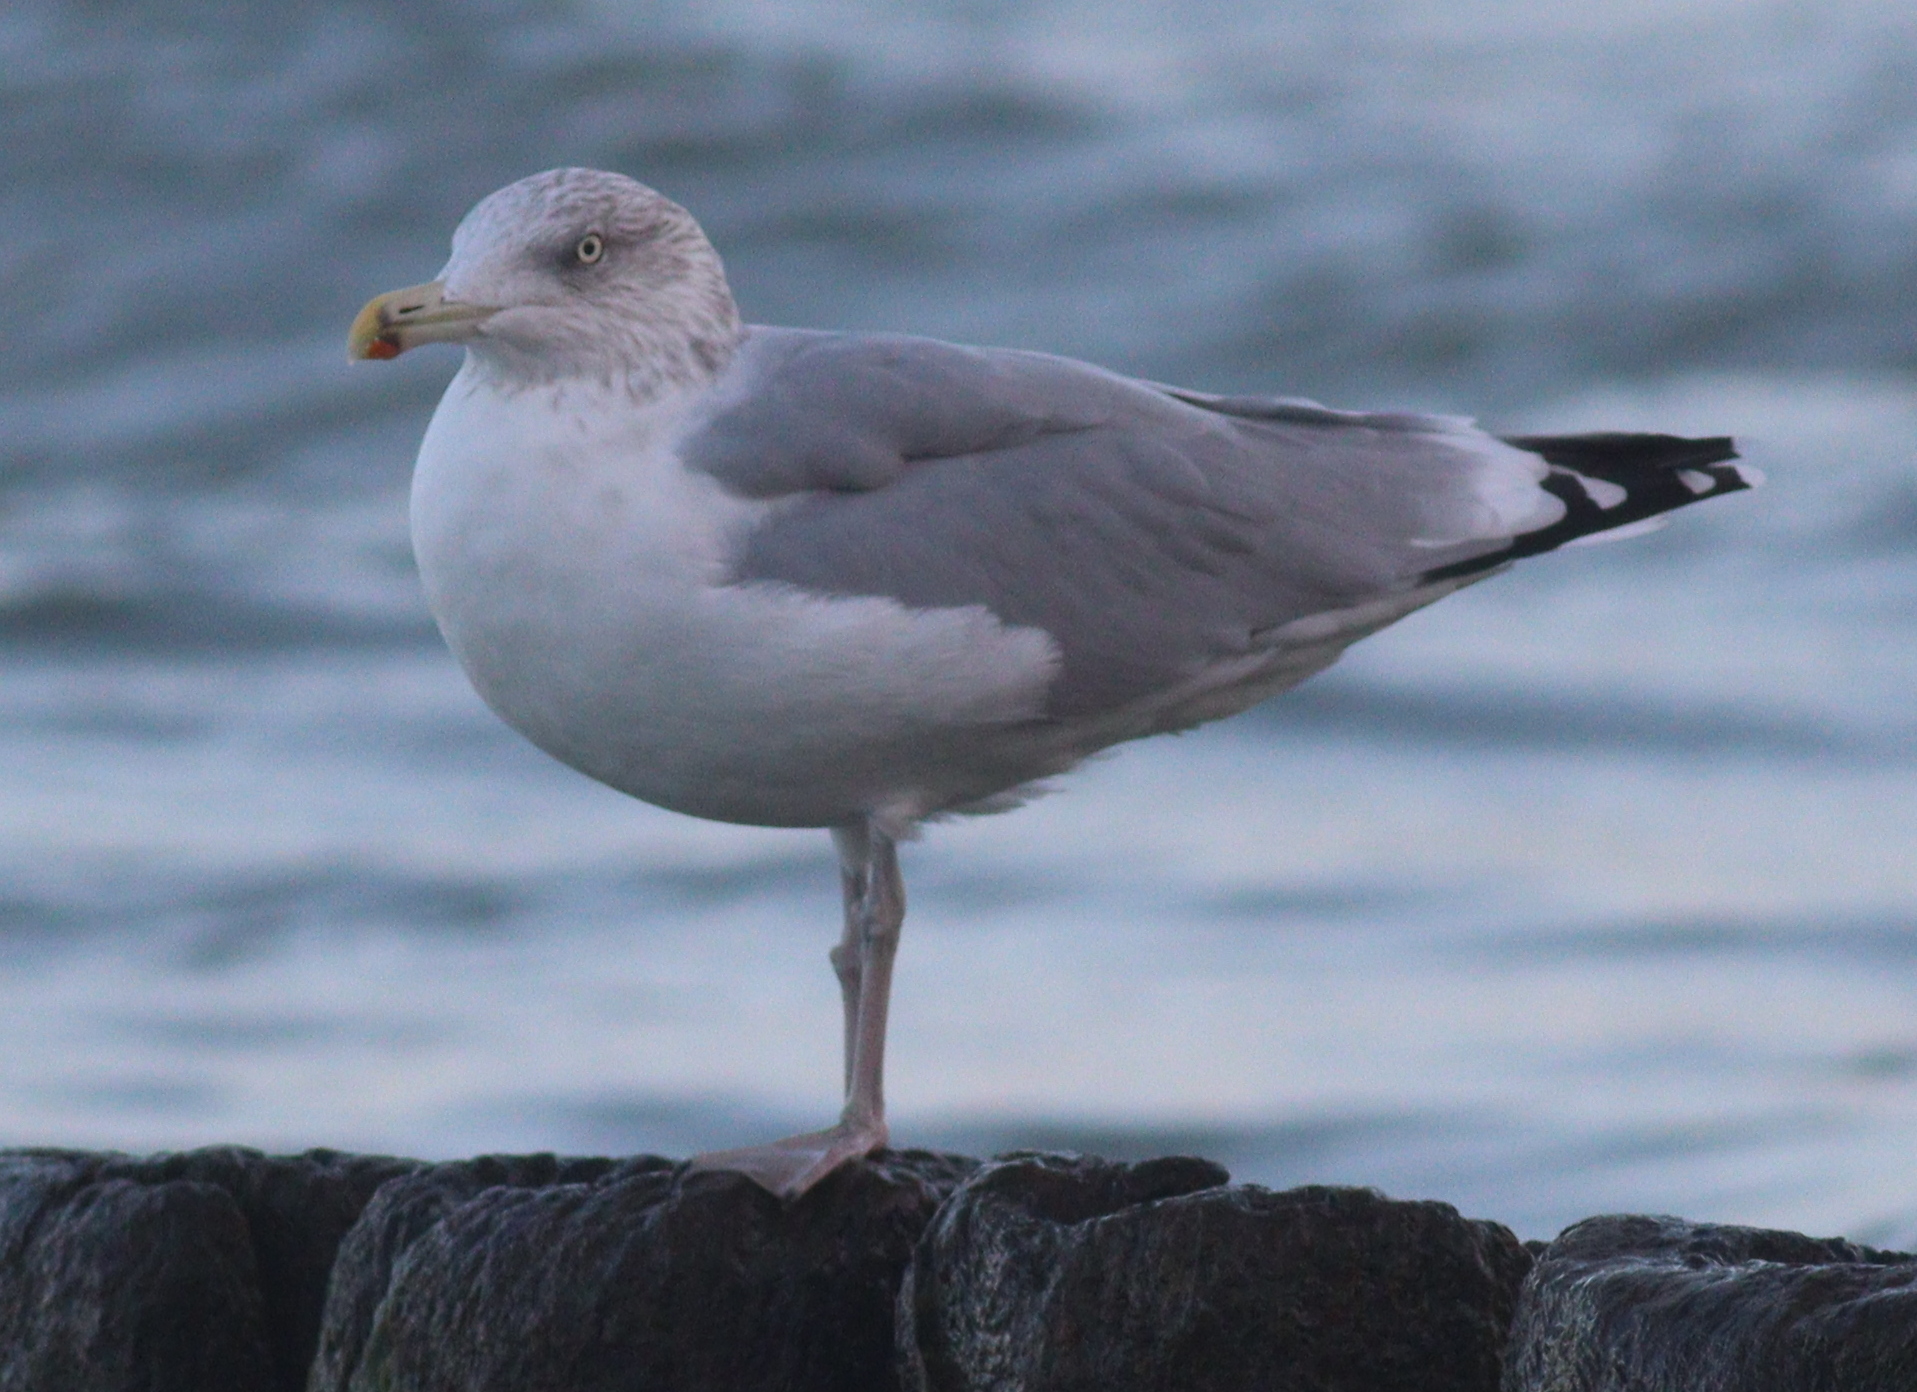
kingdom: Animalia
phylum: Chordata
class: Aves
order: Charadriiformes
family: Laridae
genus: Larus
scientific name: Larus argentatus
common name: Herring gull
